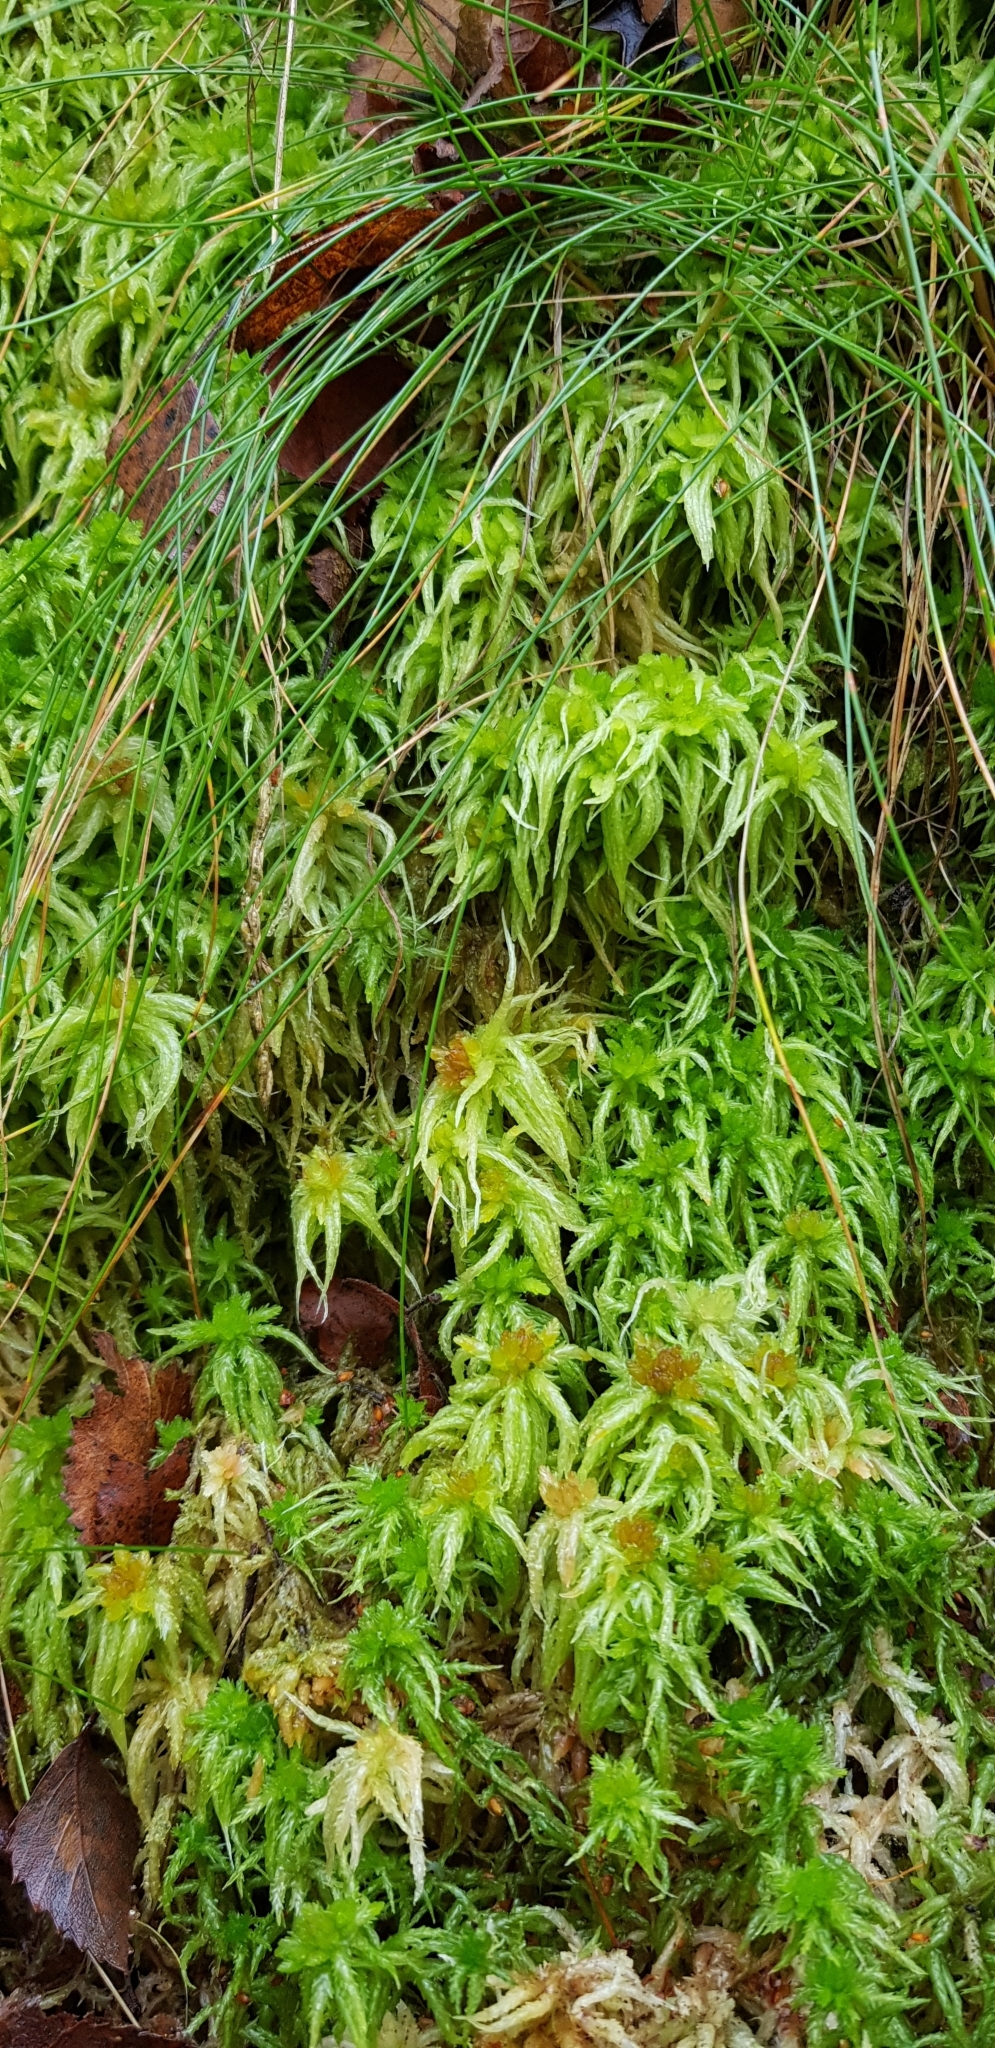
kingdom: Plantae
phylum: Bryophyta
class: Sphagnopsida
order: Sphagnales
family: Sphagnaceae
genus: Sphagnum
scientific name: Sphagnum palustre
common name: Blunt-leaved bog-moss
